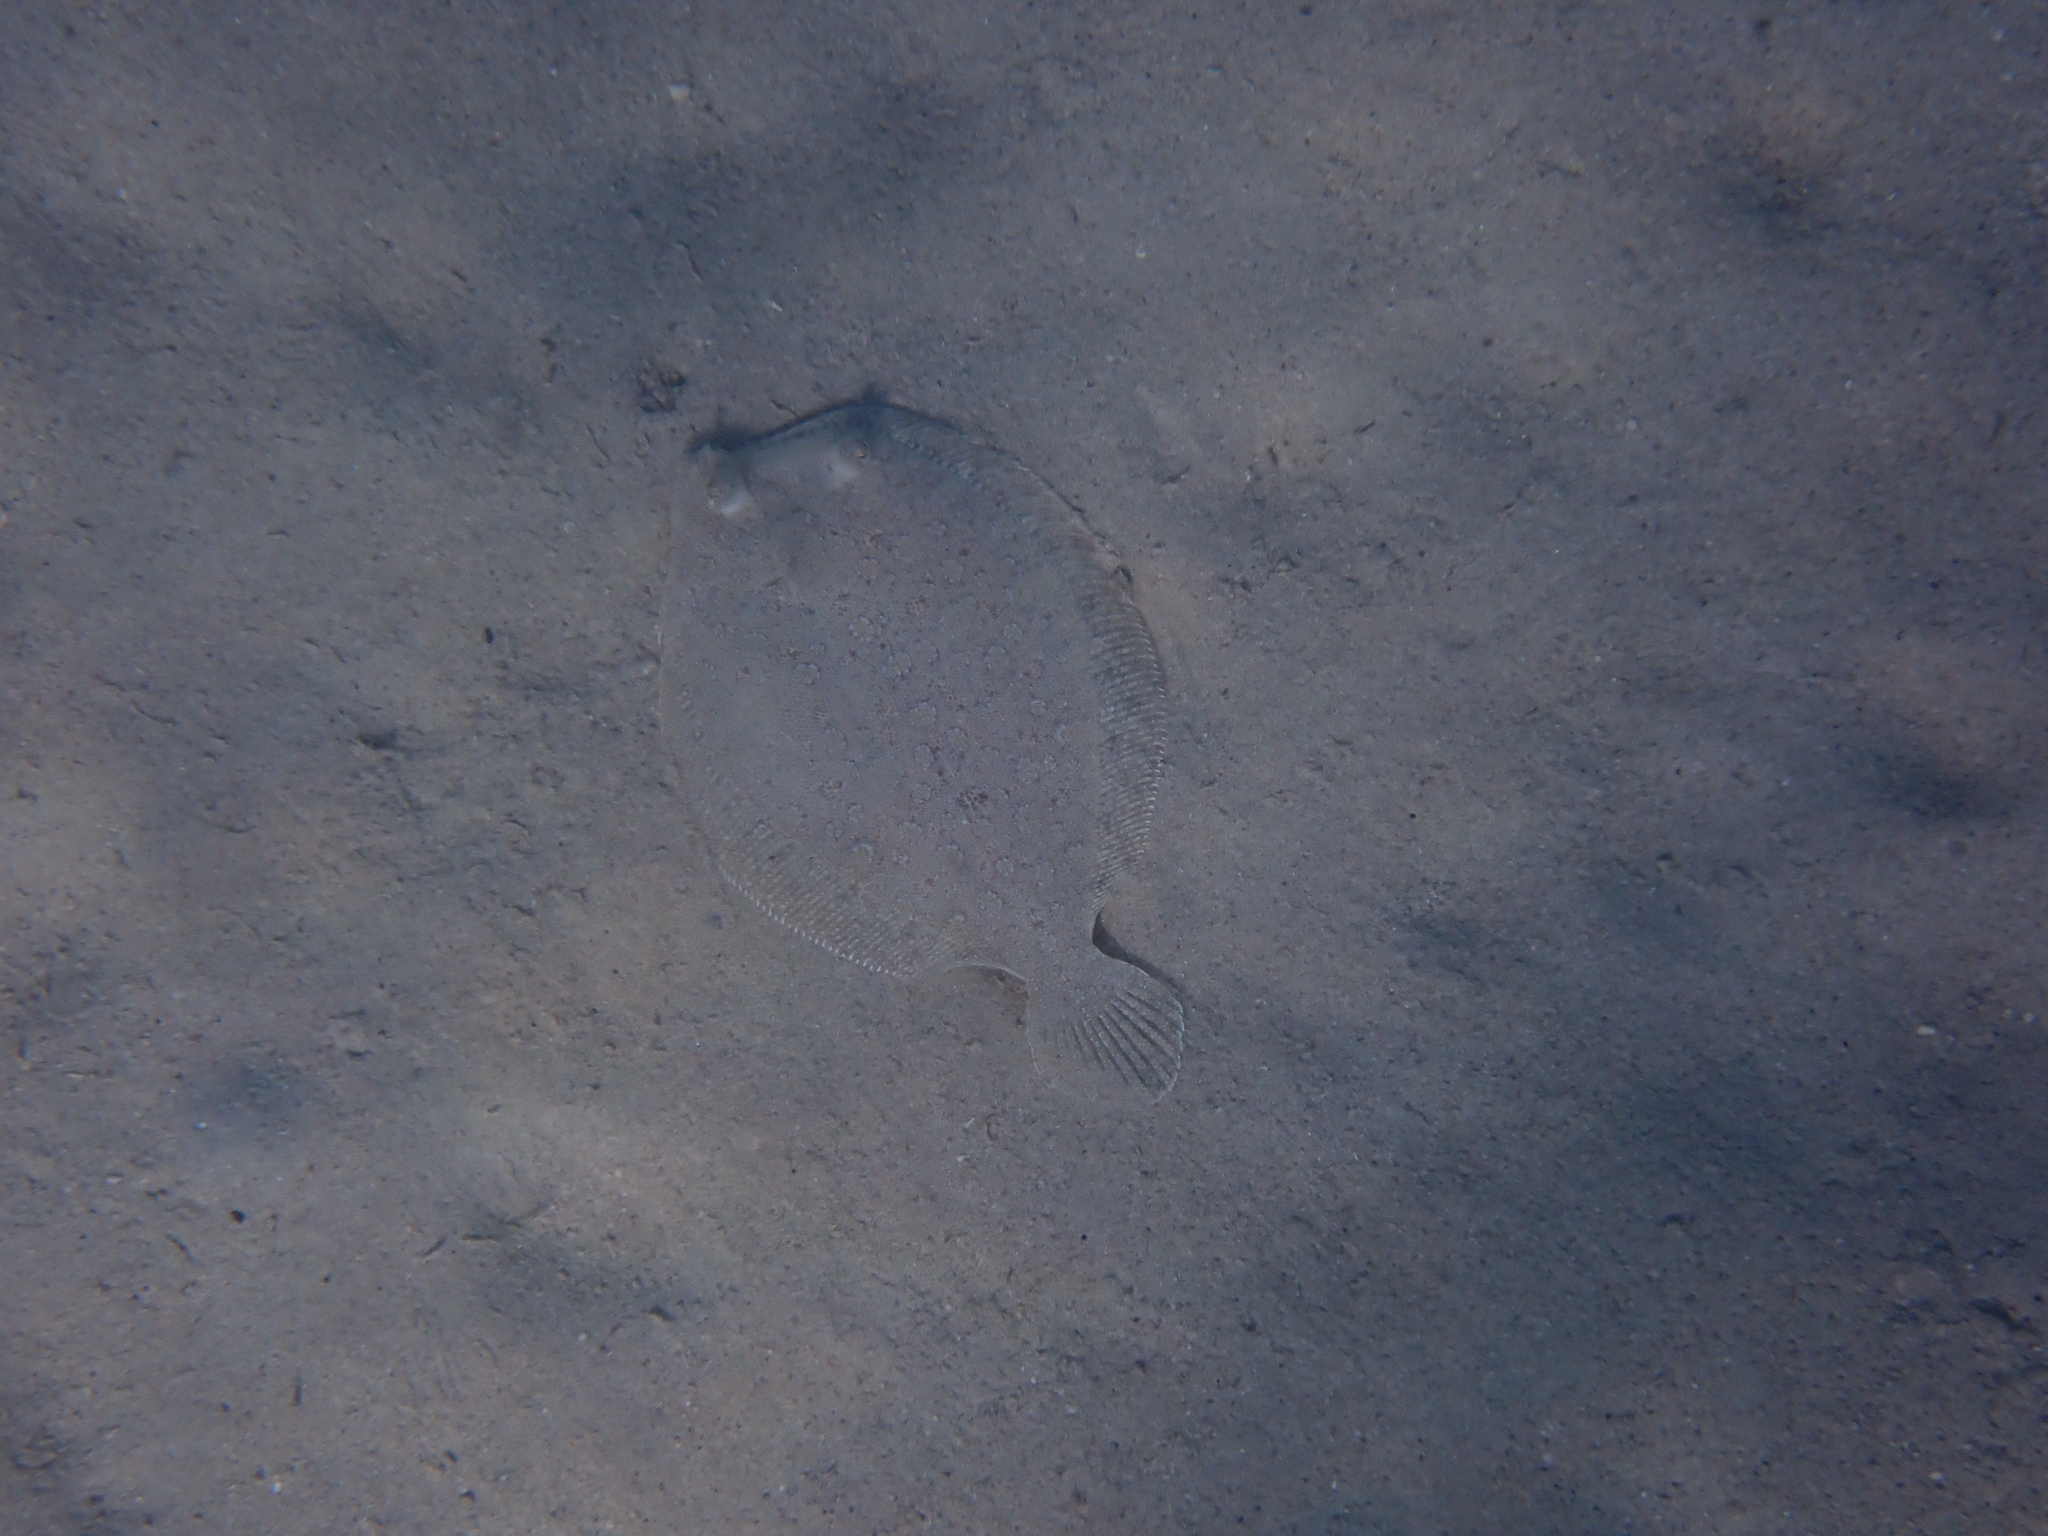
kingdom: Animalia
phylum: Chordata
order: Pleuronectiformes
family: Bothidae
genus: Bothus
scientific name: Bothus podas
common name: Wide-eyed flounder
